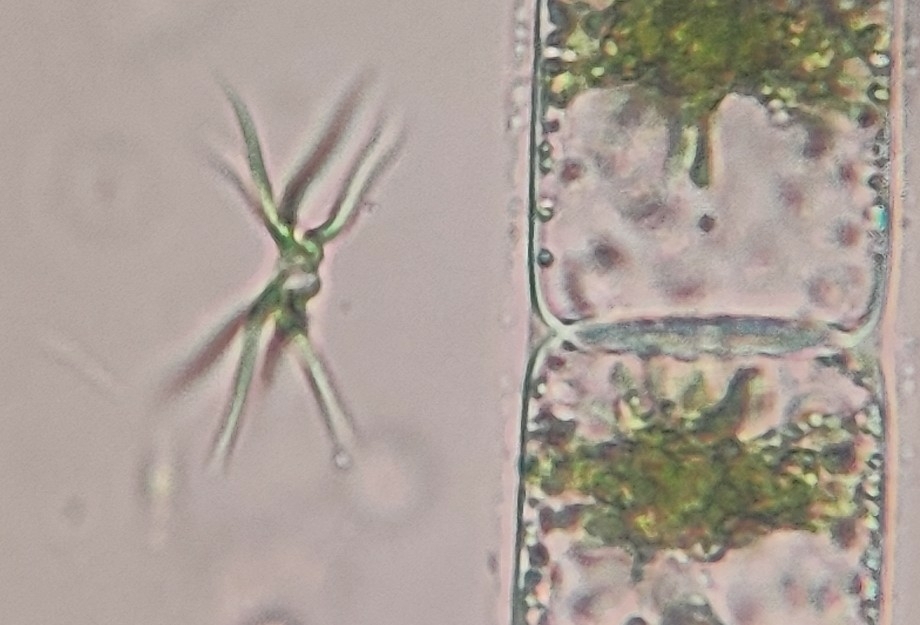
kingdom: Plantae
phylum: Chlorophyta
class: Chlorophyceae
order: Sphaeropleales
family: Selenastraceae
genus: Ankistrodesmus
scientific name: Ankistrodesmus spiralis
